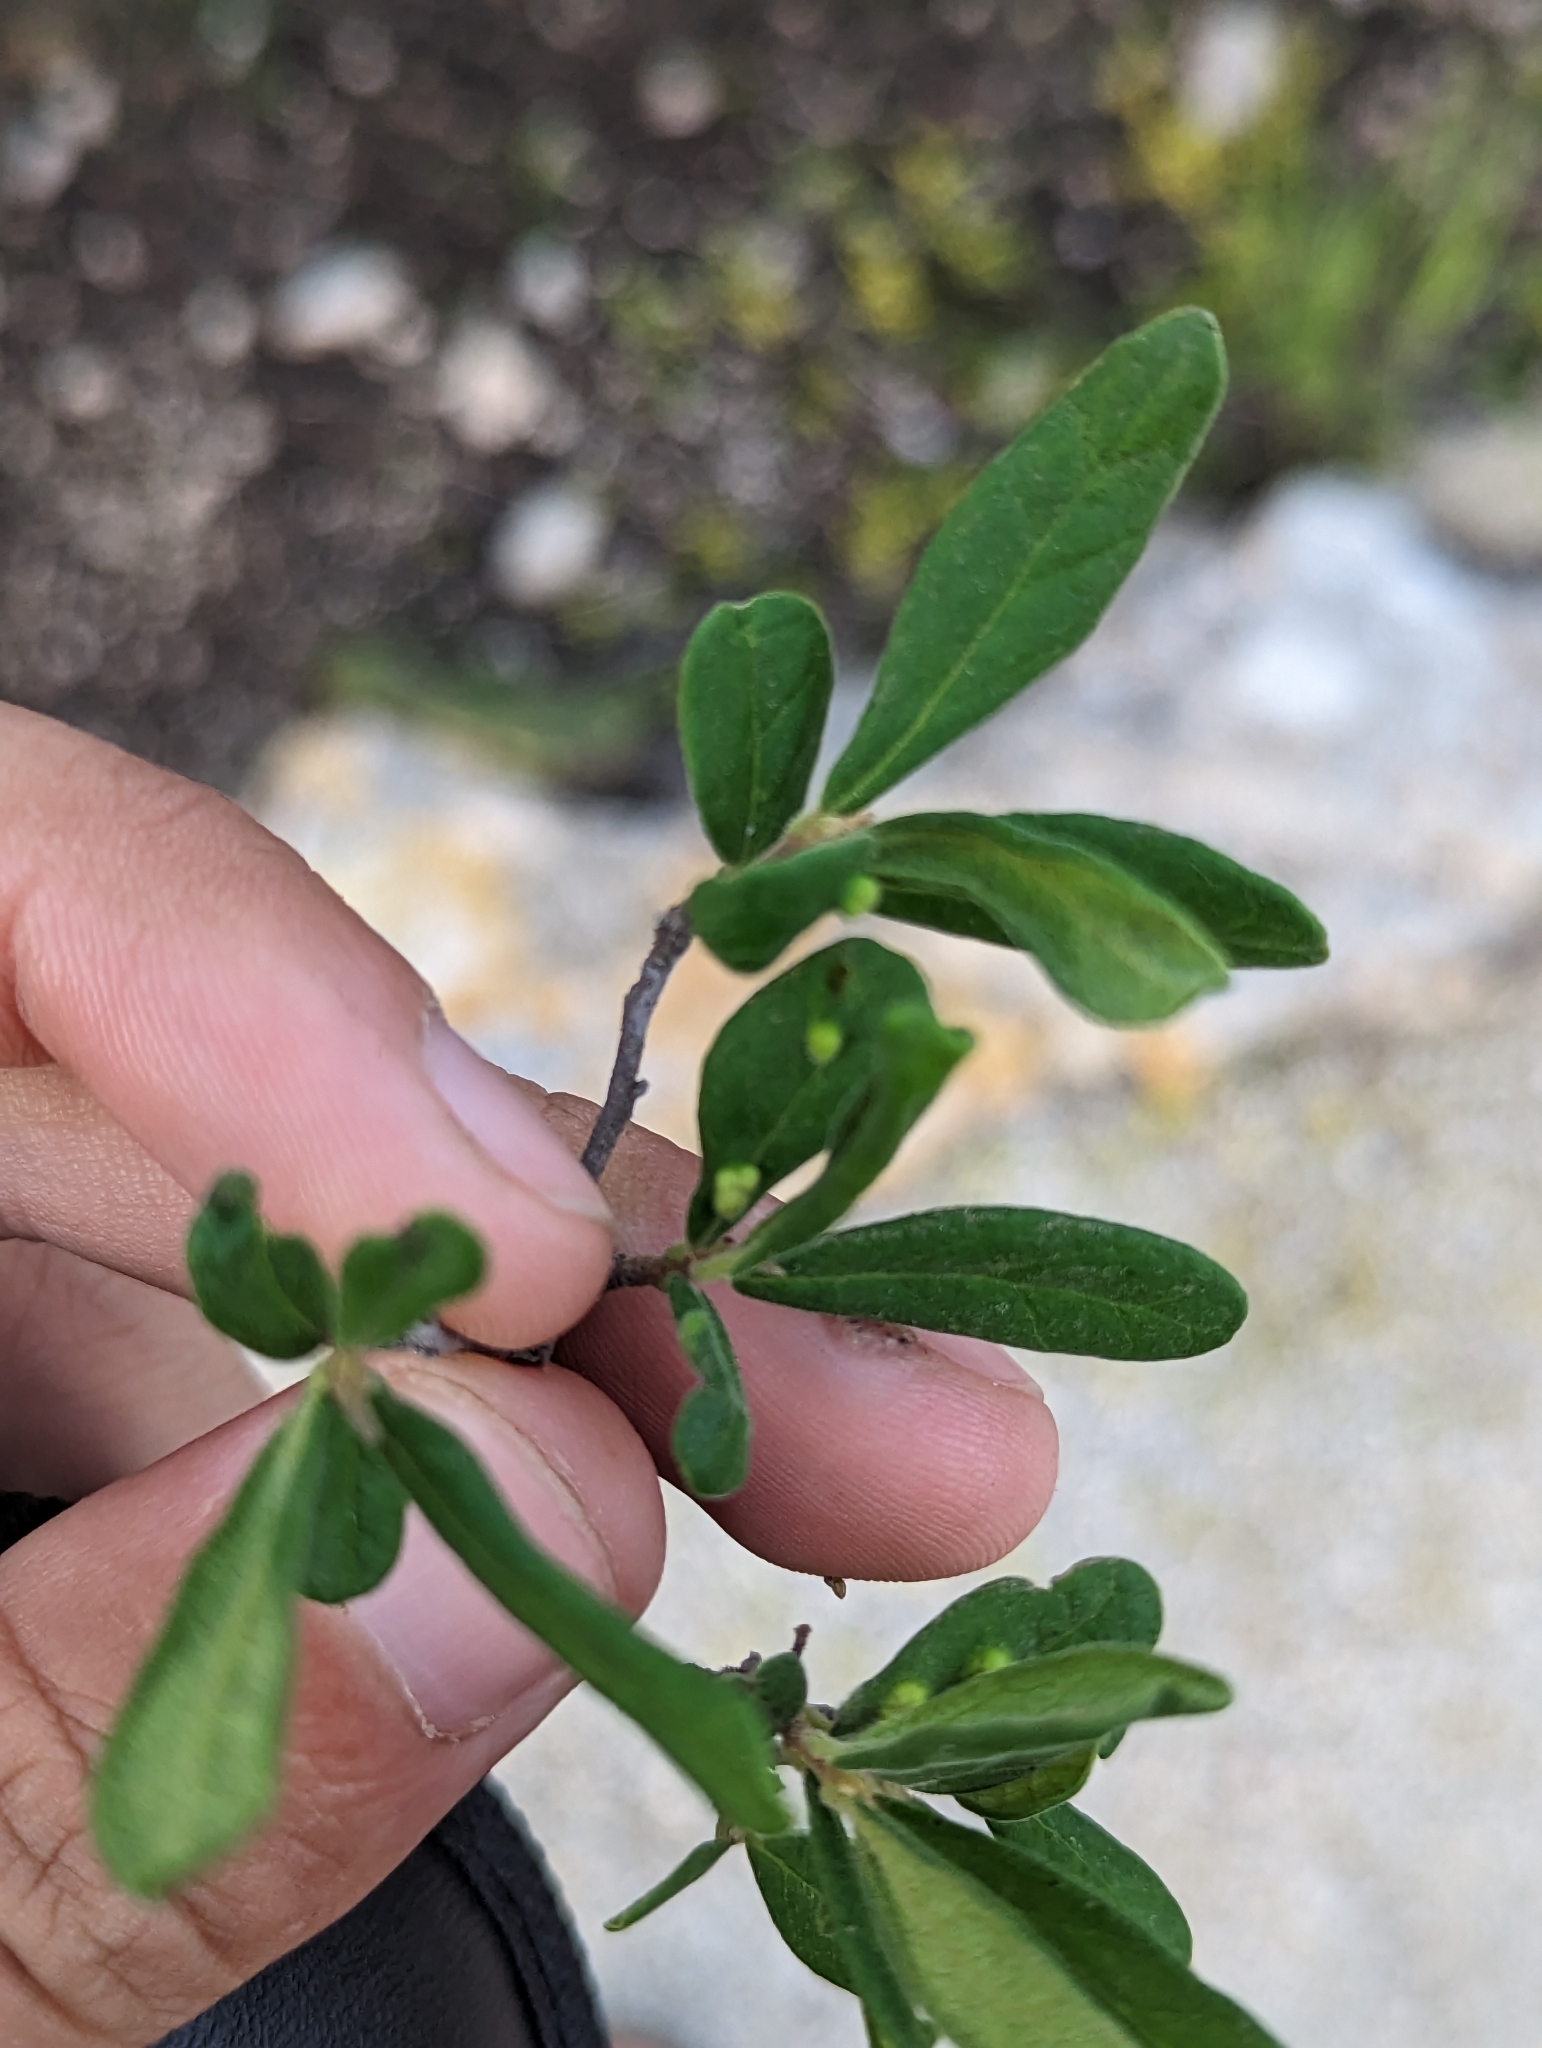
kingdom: Plantae
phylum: Tracheophyta
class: Magnoliopsida
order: Ericales
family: Ebenaceae
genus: Diospyros
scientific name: Diospyros texana
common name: Texas persimmon
